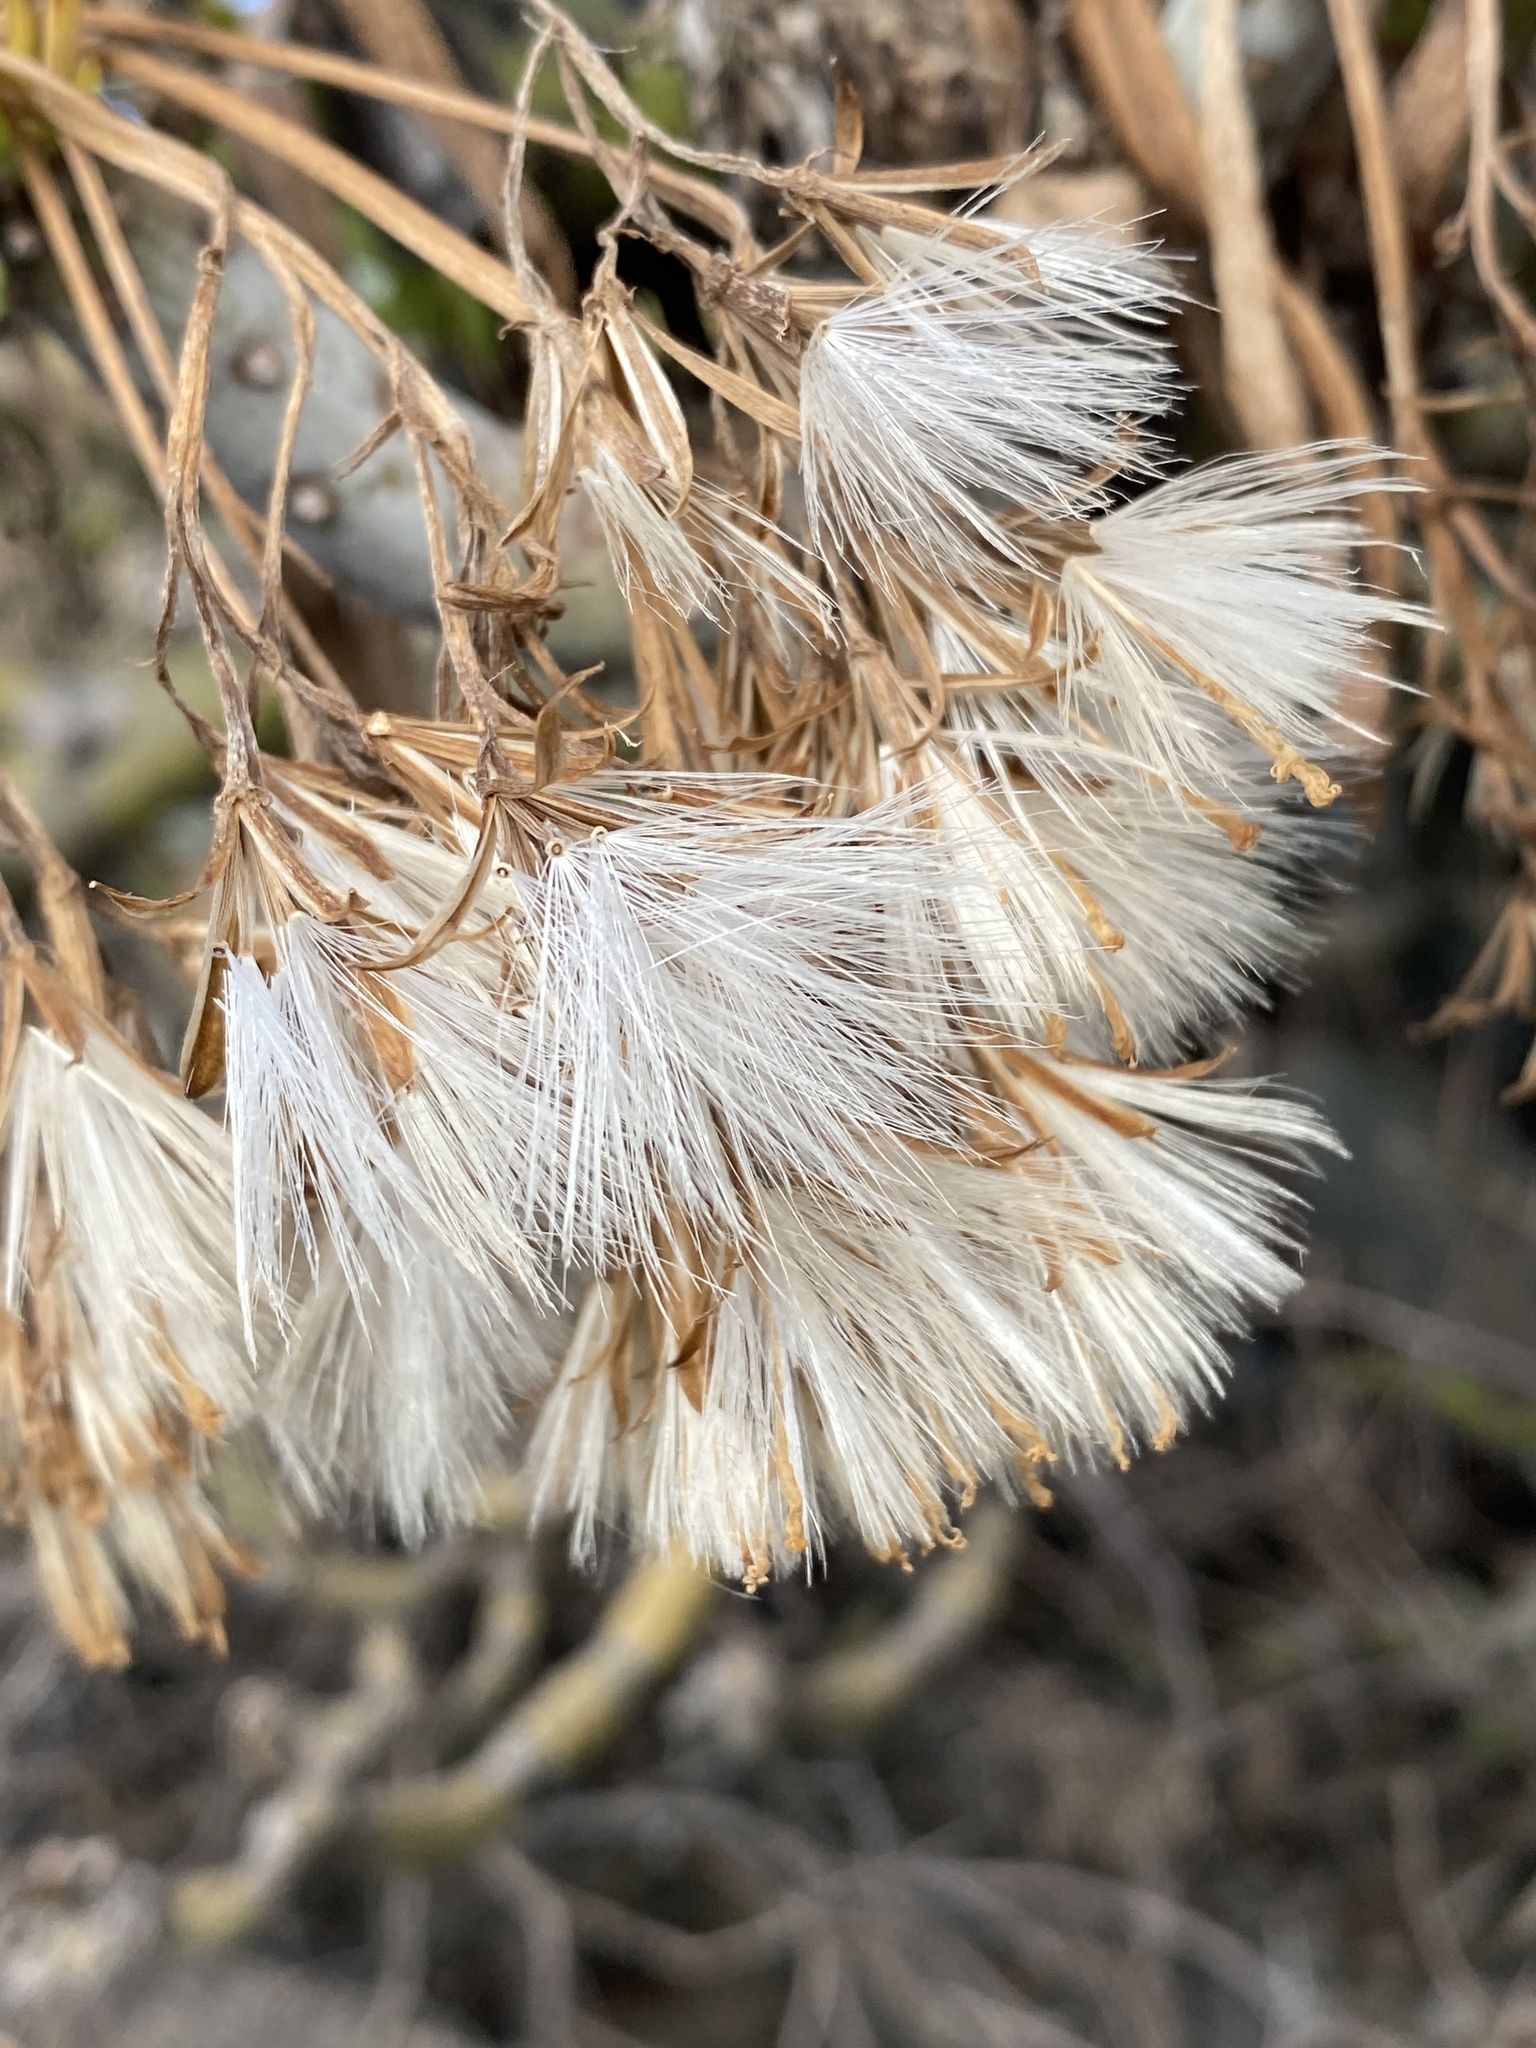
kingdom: Plantae
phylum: Tracheophyta
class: Magnoliopsida
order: Asterales
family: Asteraceae
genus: Kleinia
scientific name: Kleinia neriifolia
